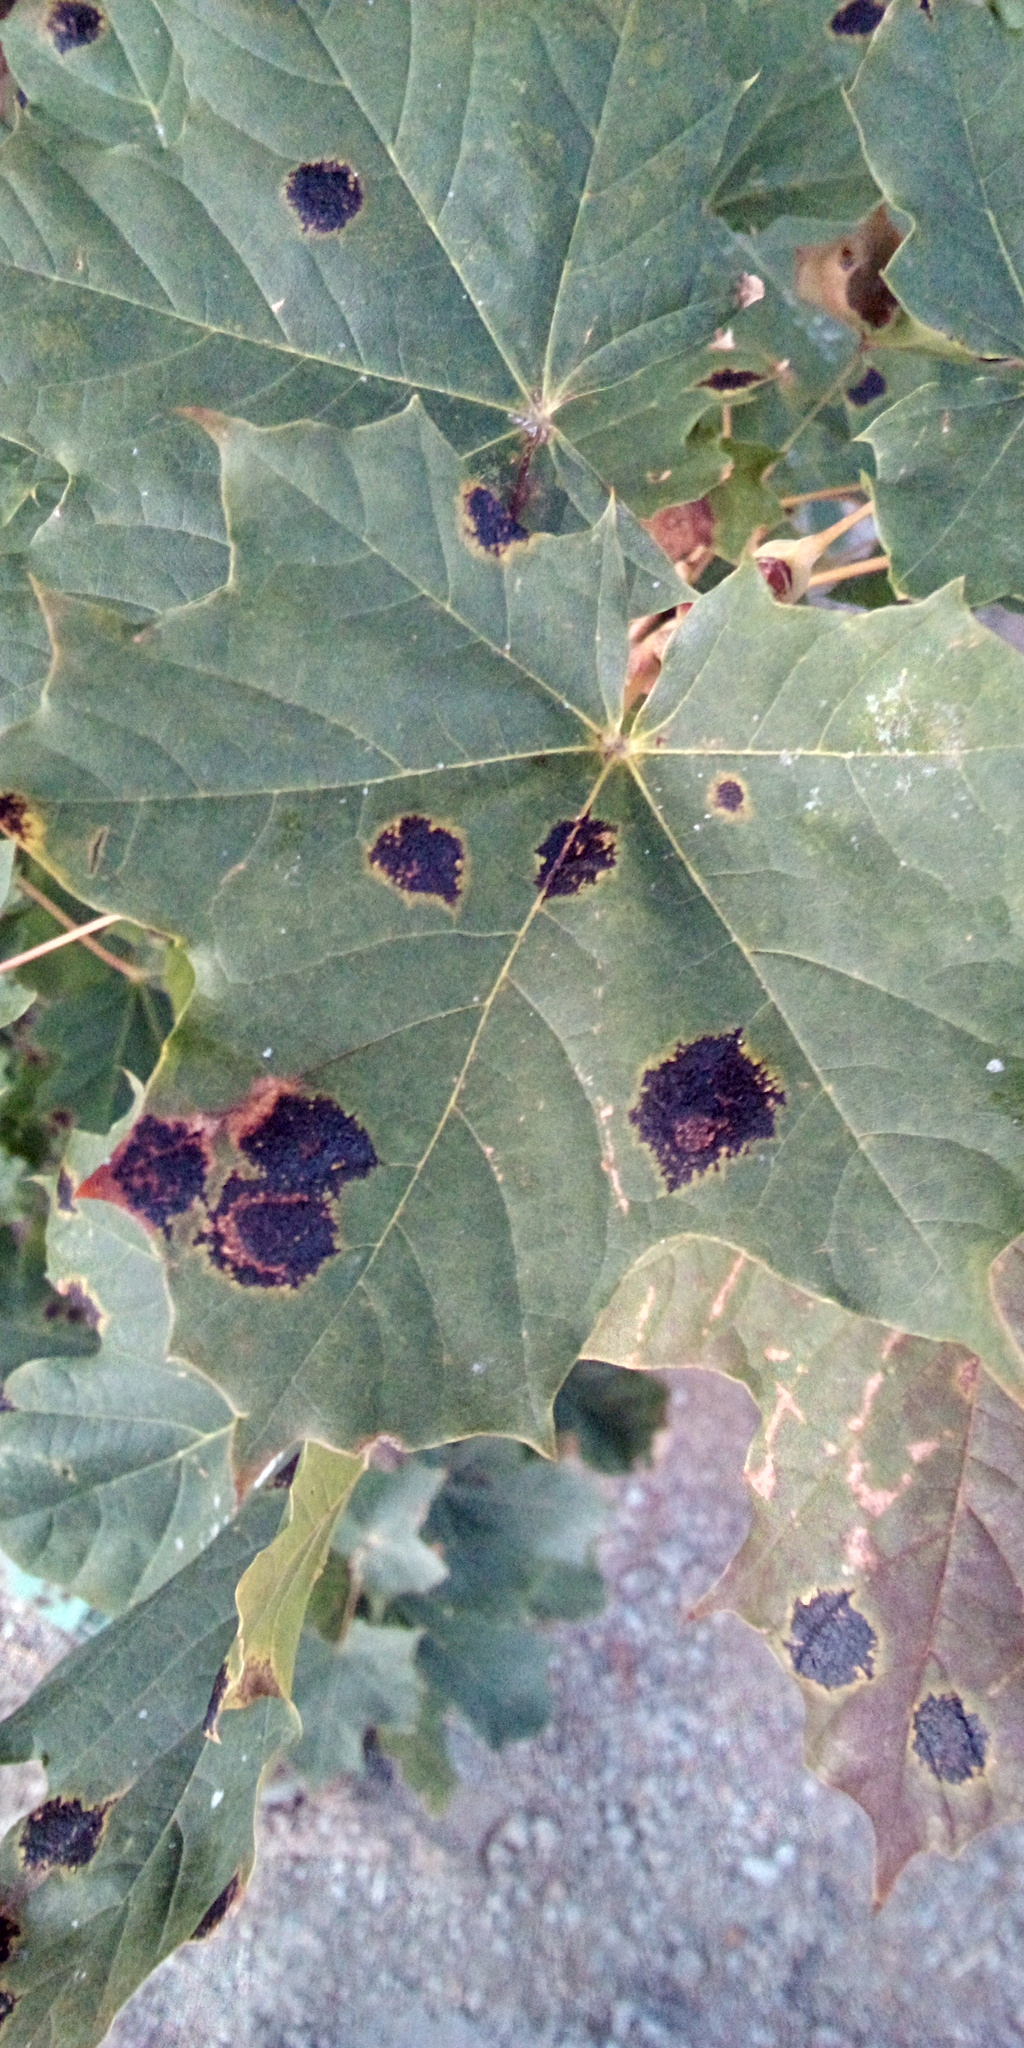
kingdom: Fungi
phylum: Ascomycota
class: Leotiomycetes
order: Rhytismatales
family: Rhytismataceae
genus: Rhytisma
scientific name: Rhytisma acerinum
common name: European tar spot
